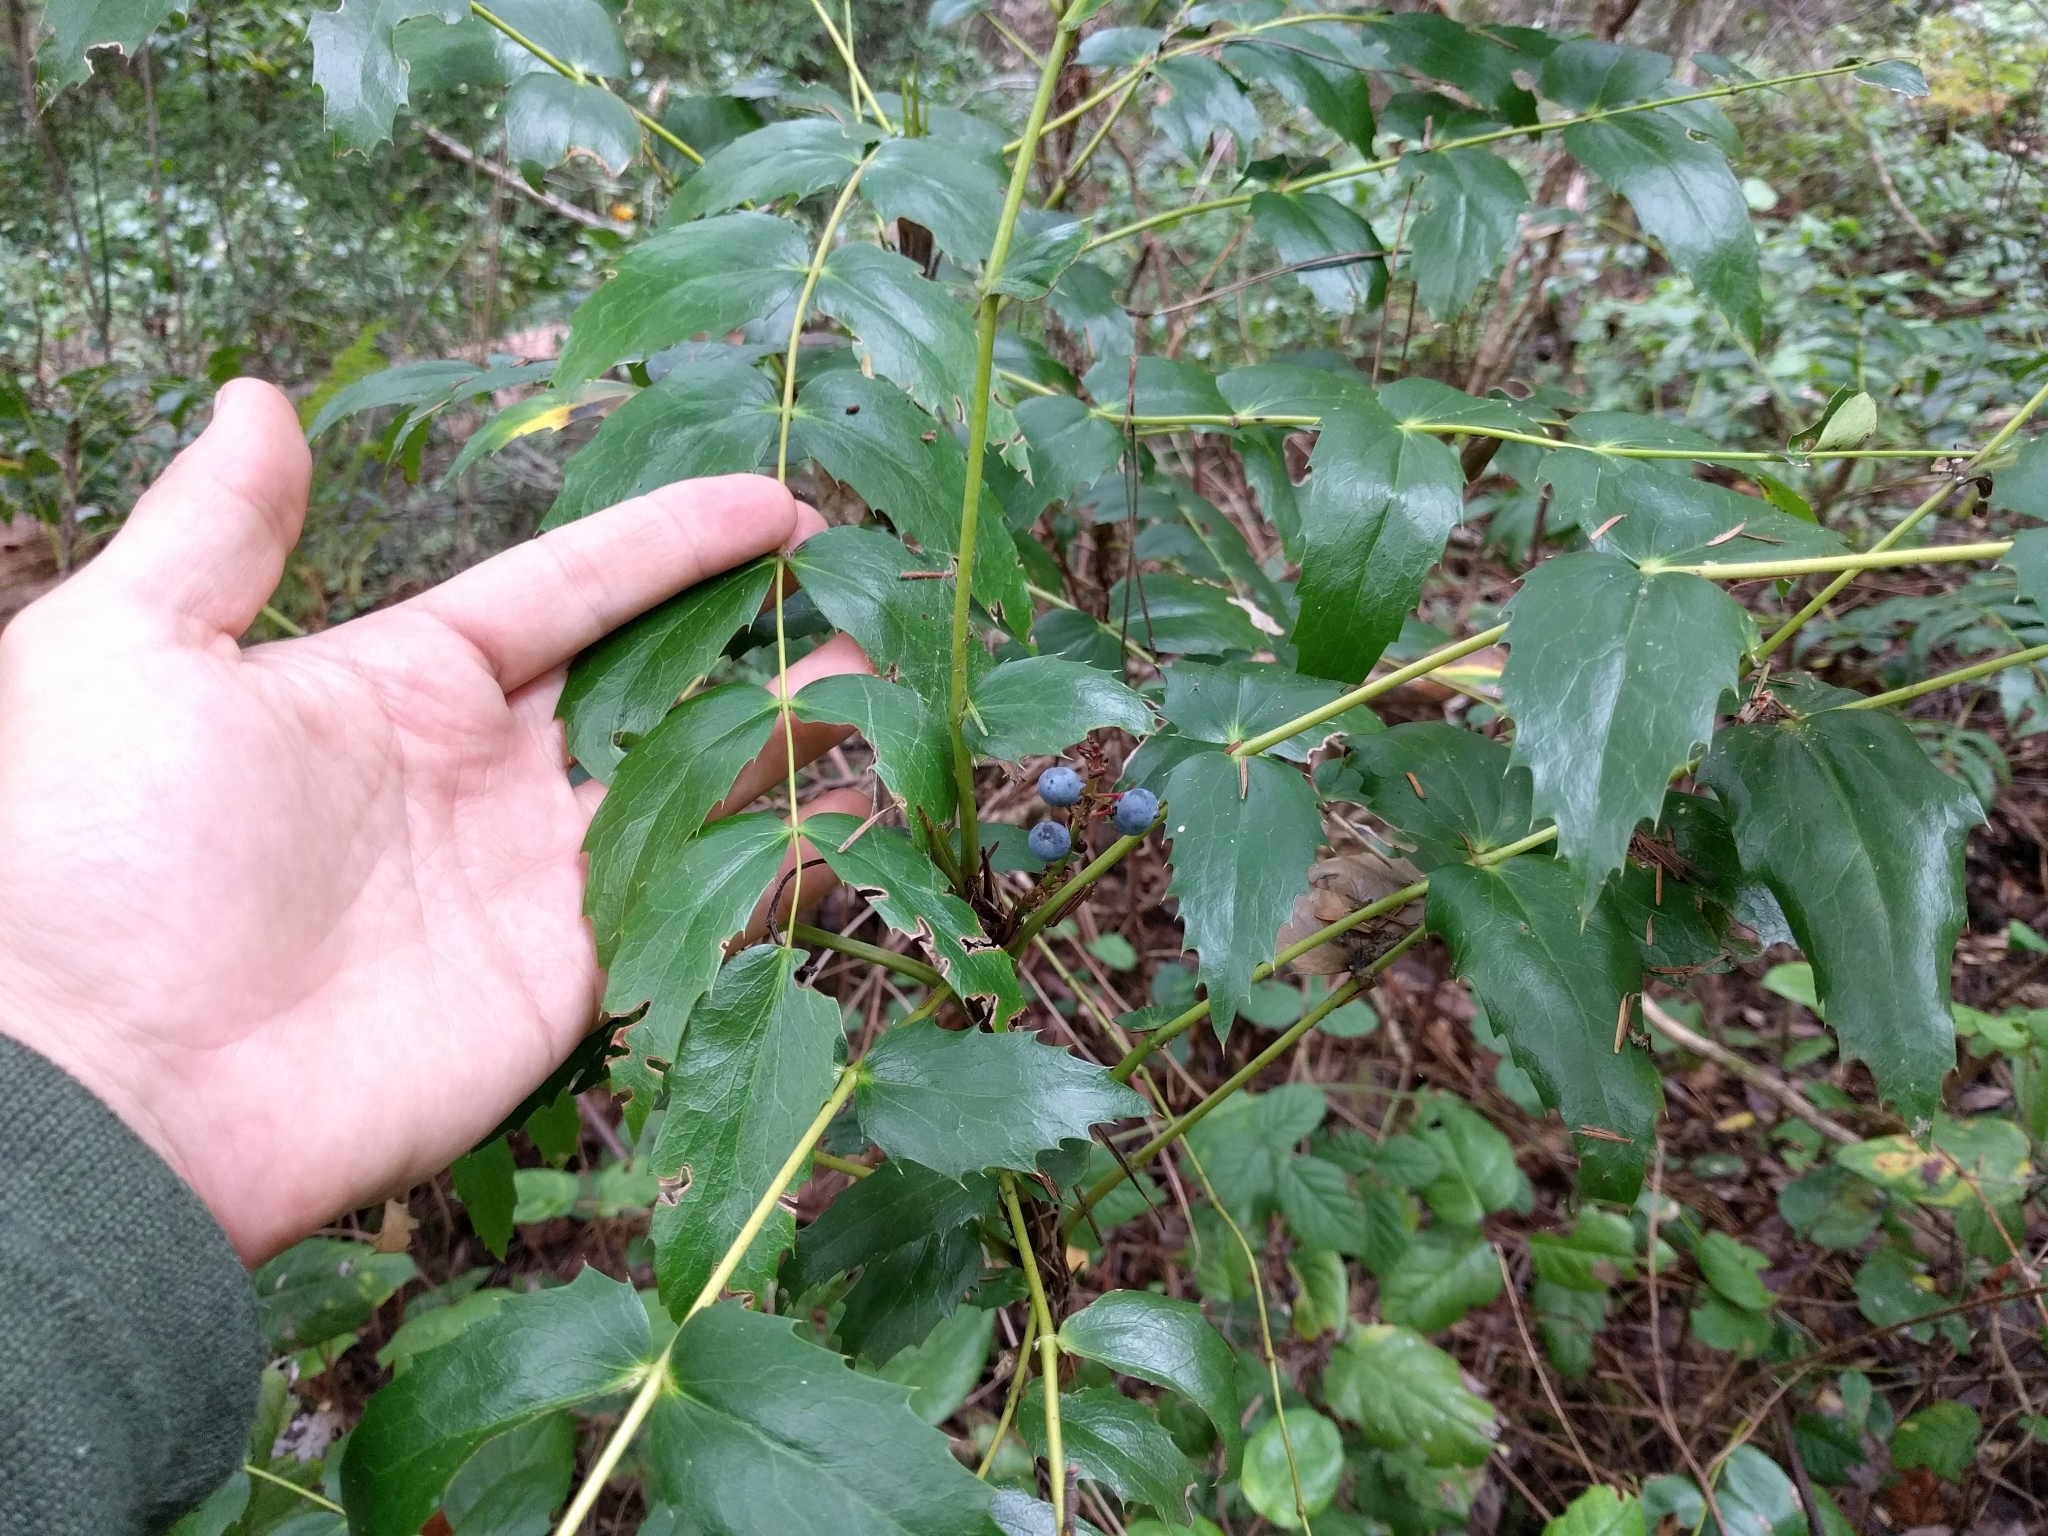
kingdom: Plantae
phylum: Tracheophyta
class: Magnoliopsida
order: Ranunculales
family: Berberidaceae
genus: Mahonia
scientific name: Mahonia nervosa
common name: Cascade oregon-grape
